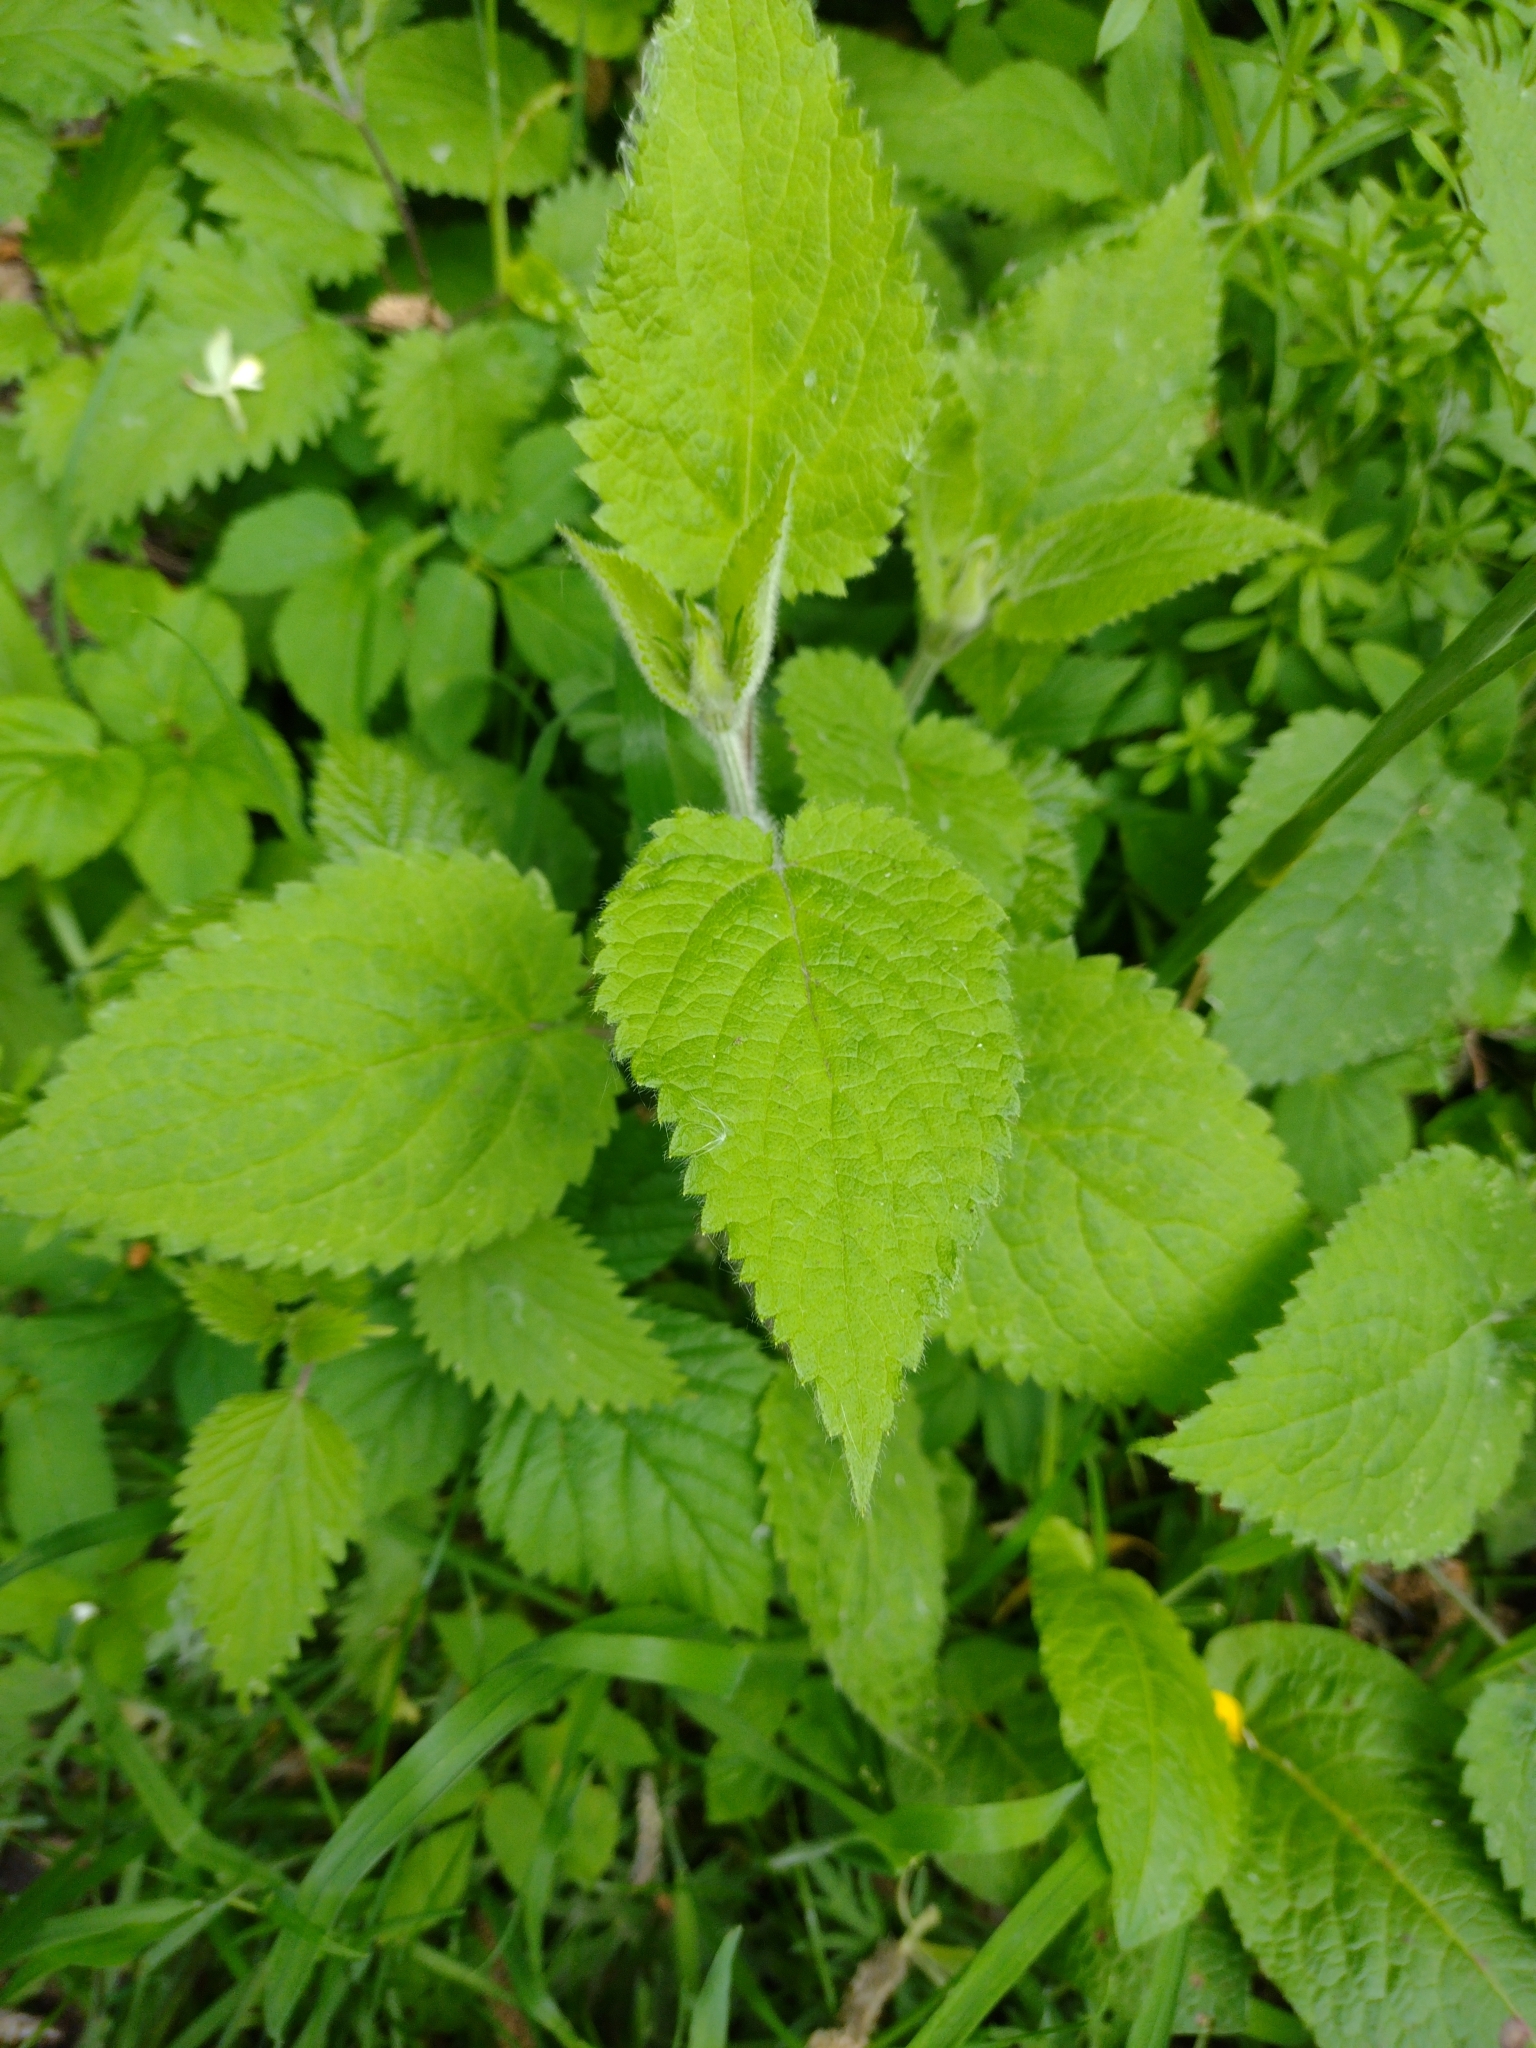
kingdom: Plantae
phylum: Tracheophyta
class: Magnoliopsida
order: Lamiales
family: Lamiaceae
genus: Stachys
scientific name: Stachys sylvatica
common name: Hedge woundwort
